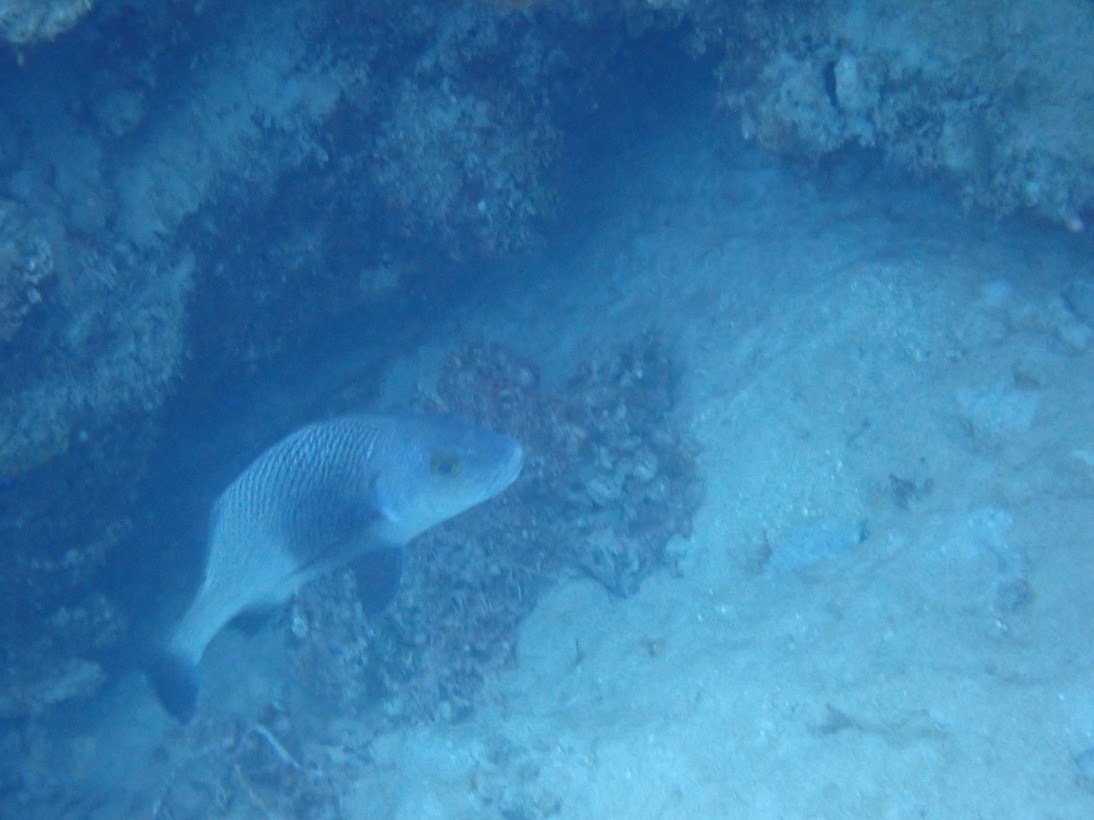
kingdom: Animalia
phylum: Chordata
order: Perciformes
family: Haemulidae
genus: Anisotremus
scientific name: Anisotremus surinamensis
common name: Black margate
